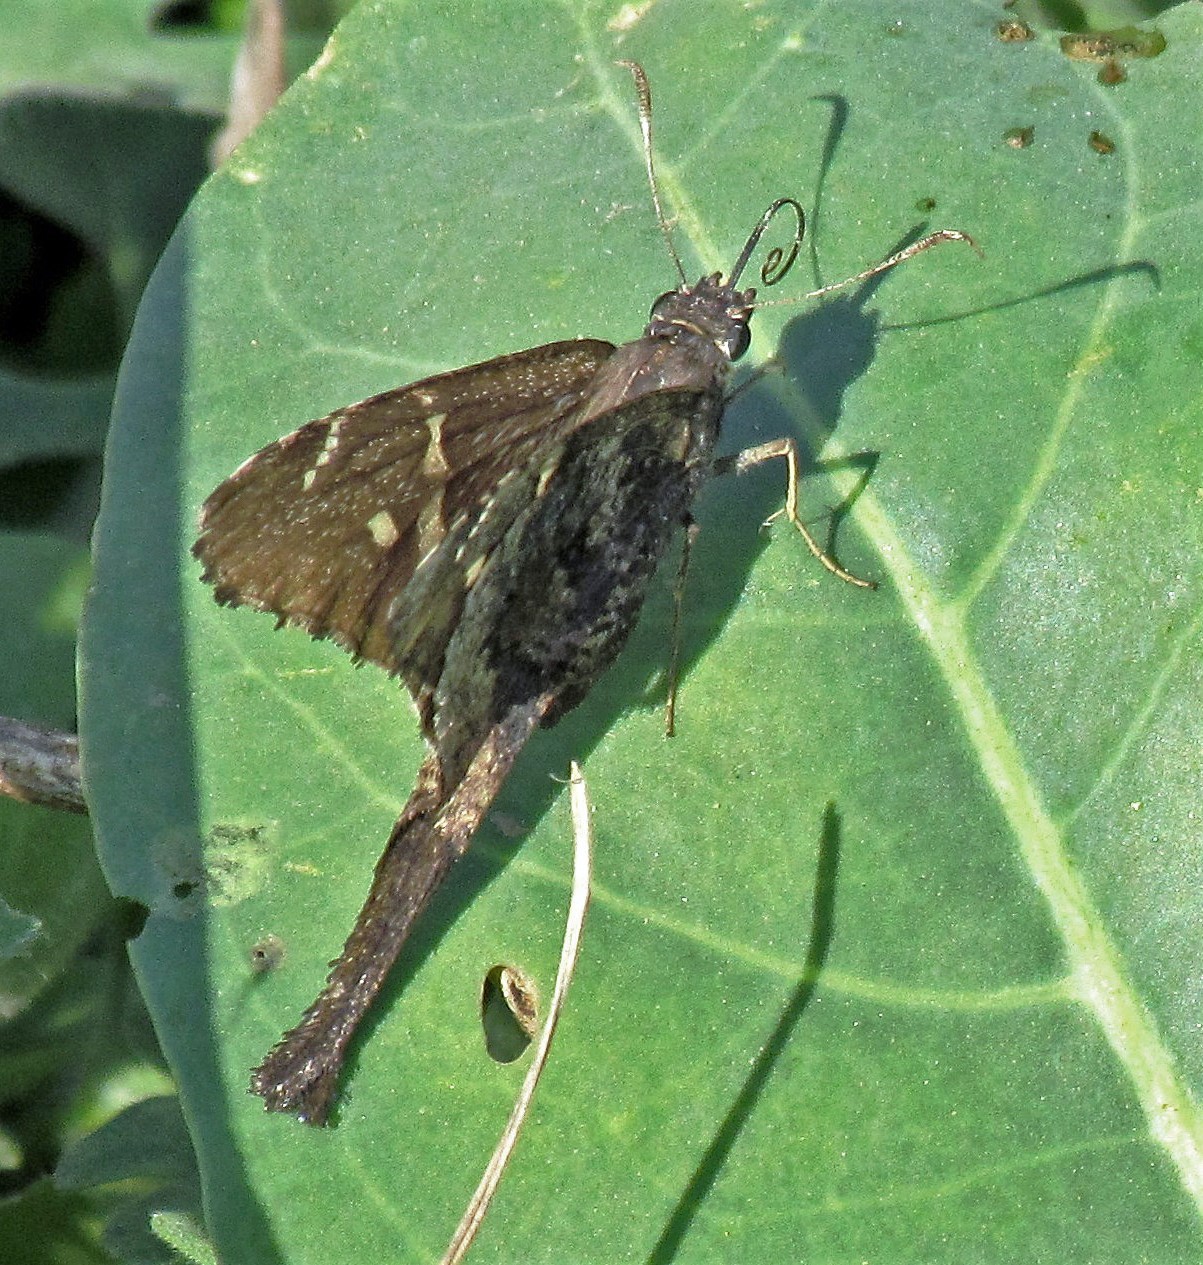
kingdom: Animalia
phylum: Arthropoda
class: Insecta
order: Lepidoptera
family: Hesperiidae
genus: Typhedanus
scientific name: Typhedanus undulatus
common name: Mottled longtail
